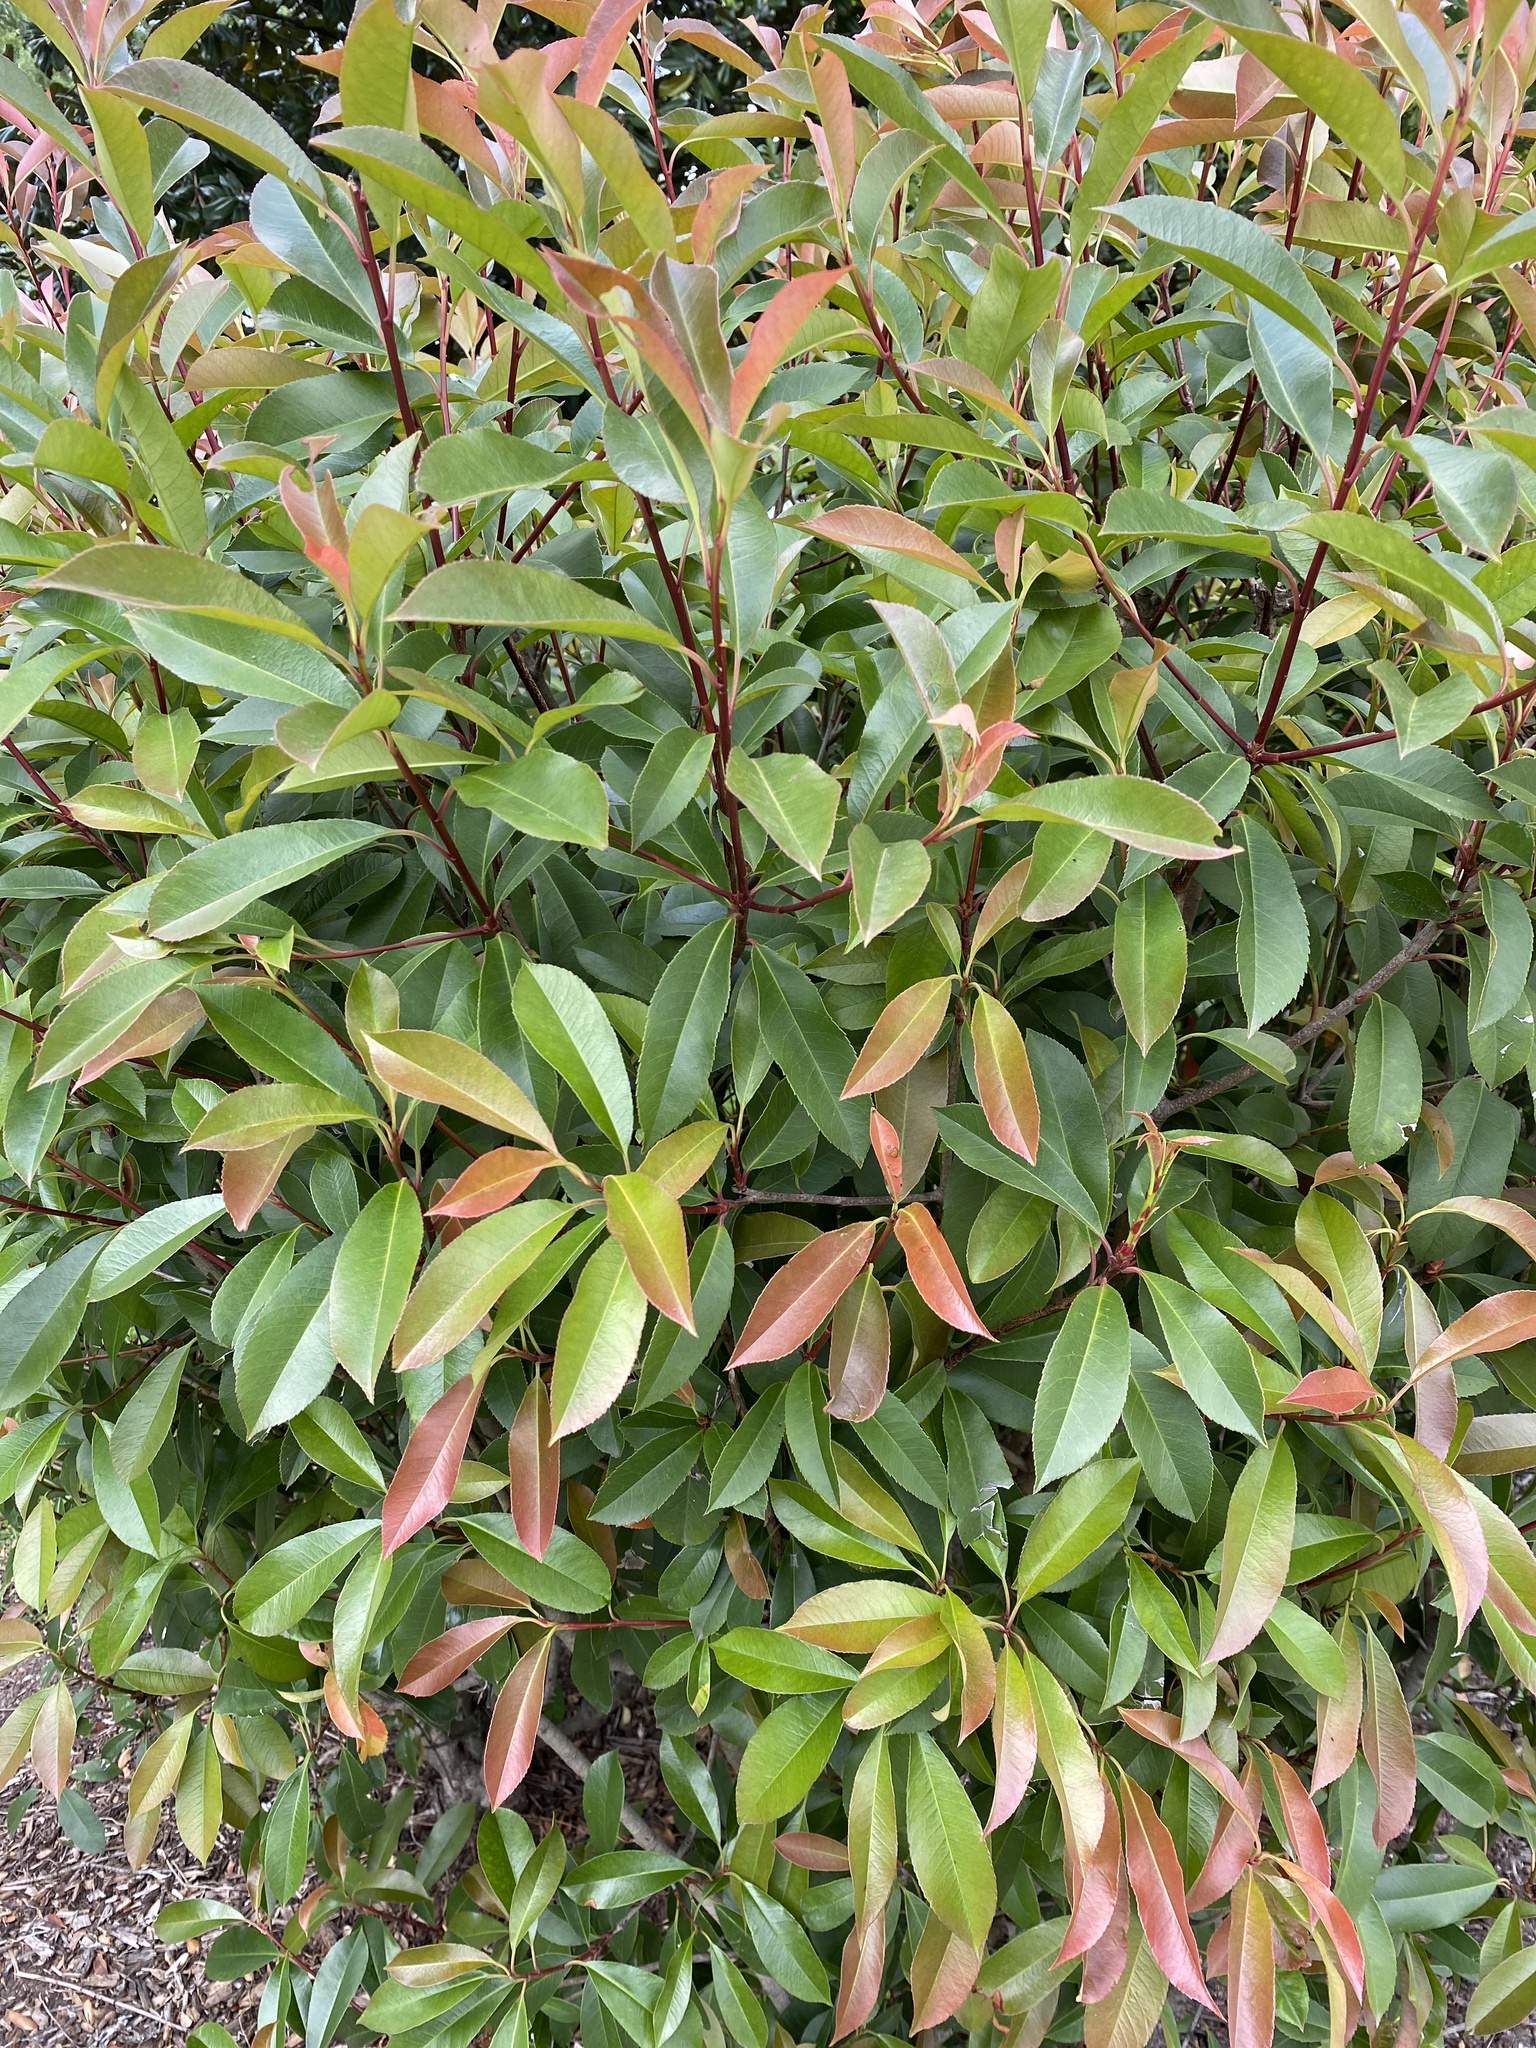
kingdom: Plantae
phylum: Tracheophyta
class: Magnoliopsida
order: Rosales
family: Rosaceae
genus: Photinia
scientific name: Photinia serratifolia
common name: Taiwanese photinia
